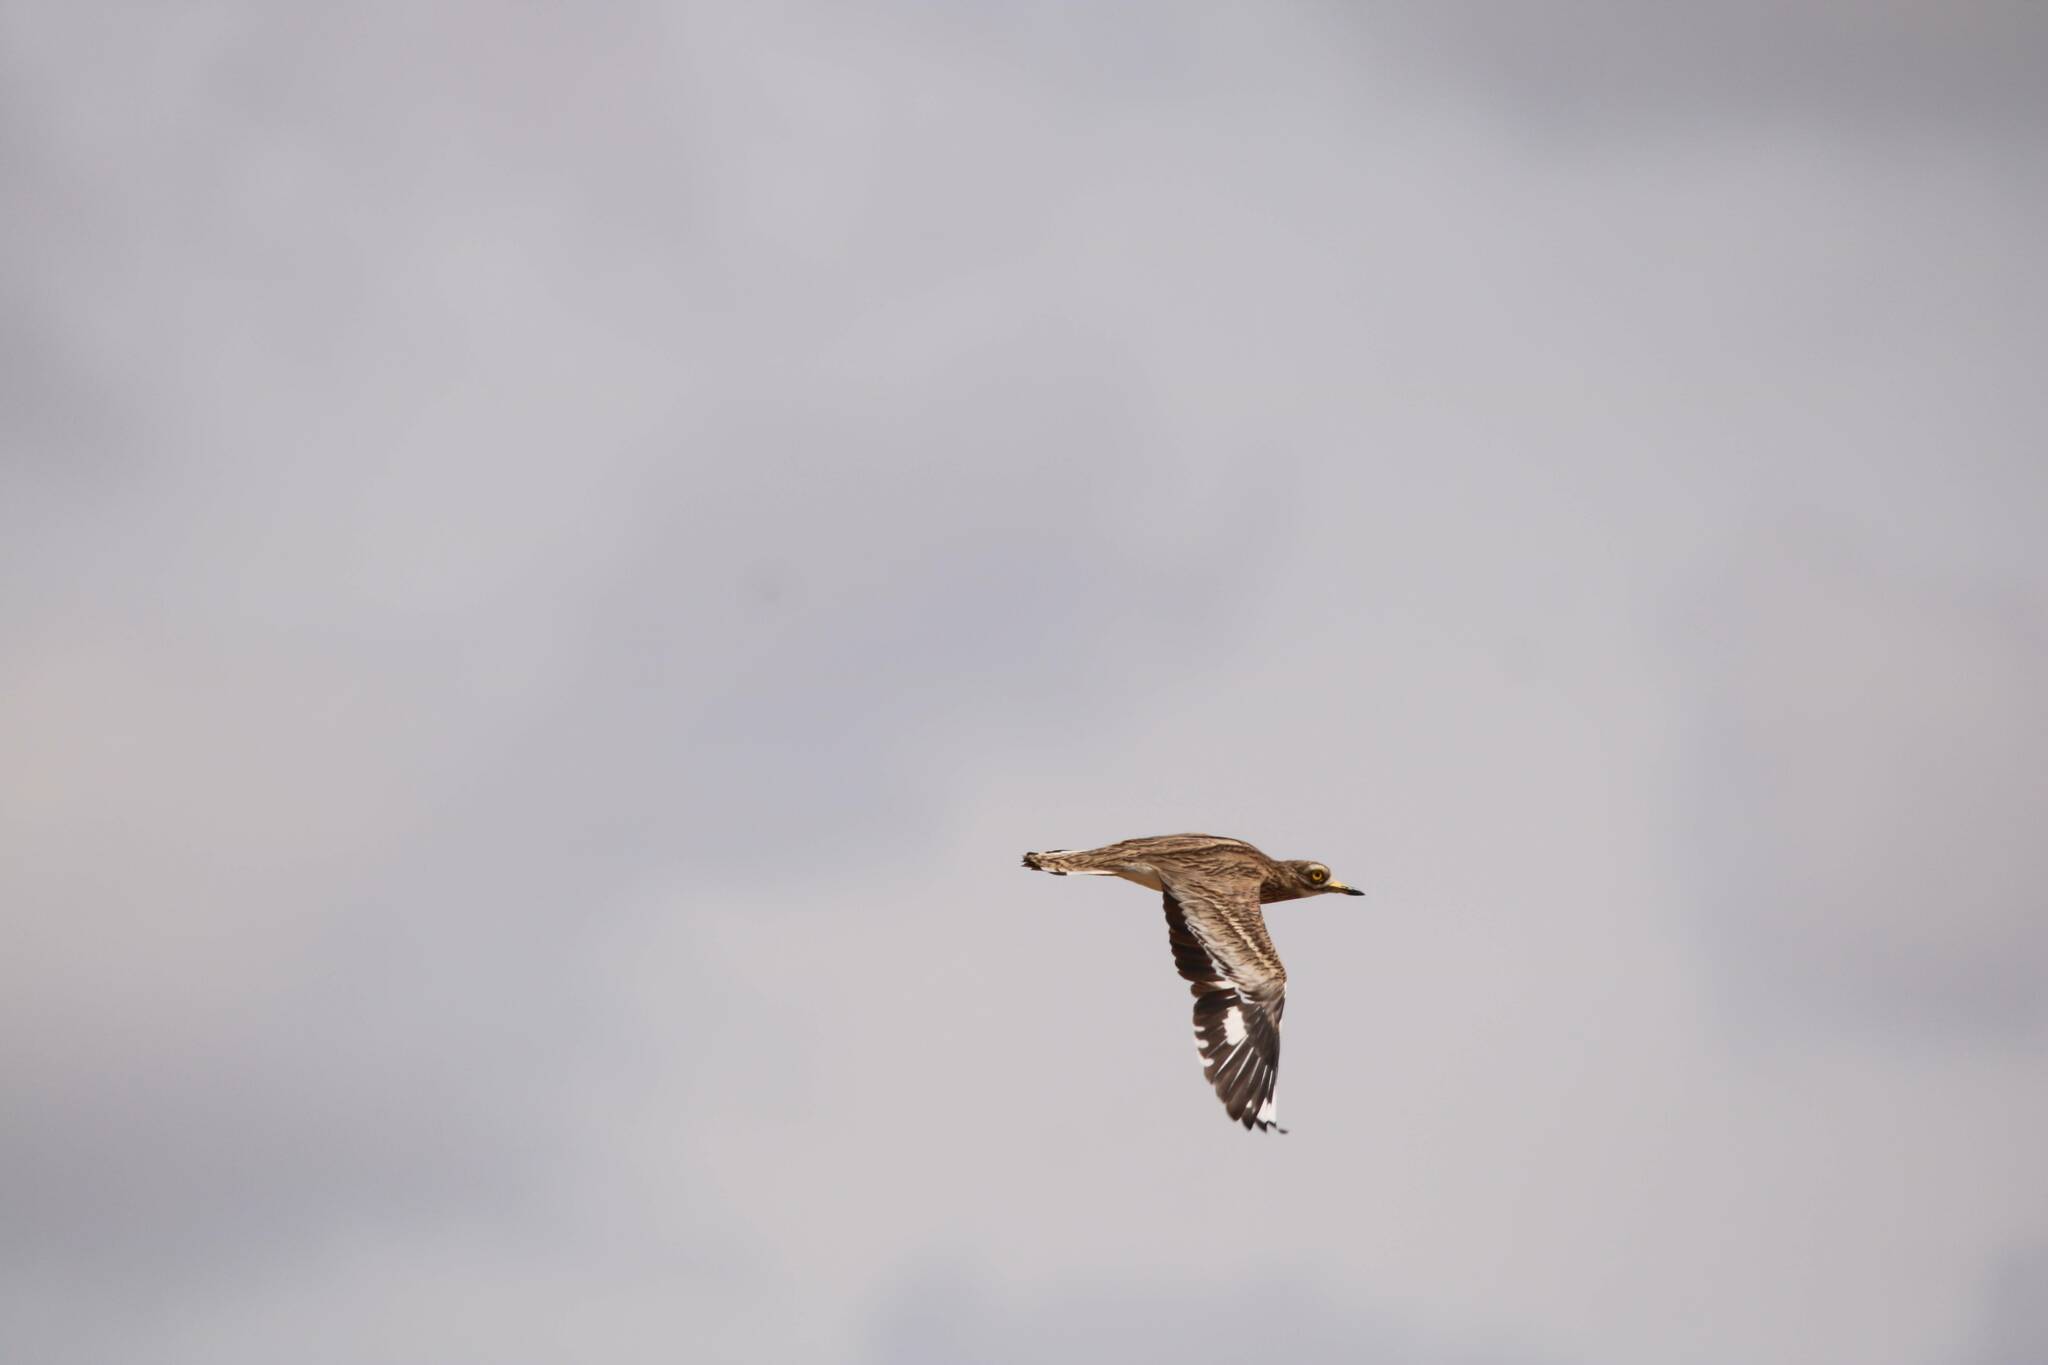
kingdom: Animalia
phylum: Chordata
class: Aves
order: Charadriiformes
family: Burhinidae
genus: Burhinus
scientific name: Burhinus oedicnemus
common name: Eurasian stone-curlew
